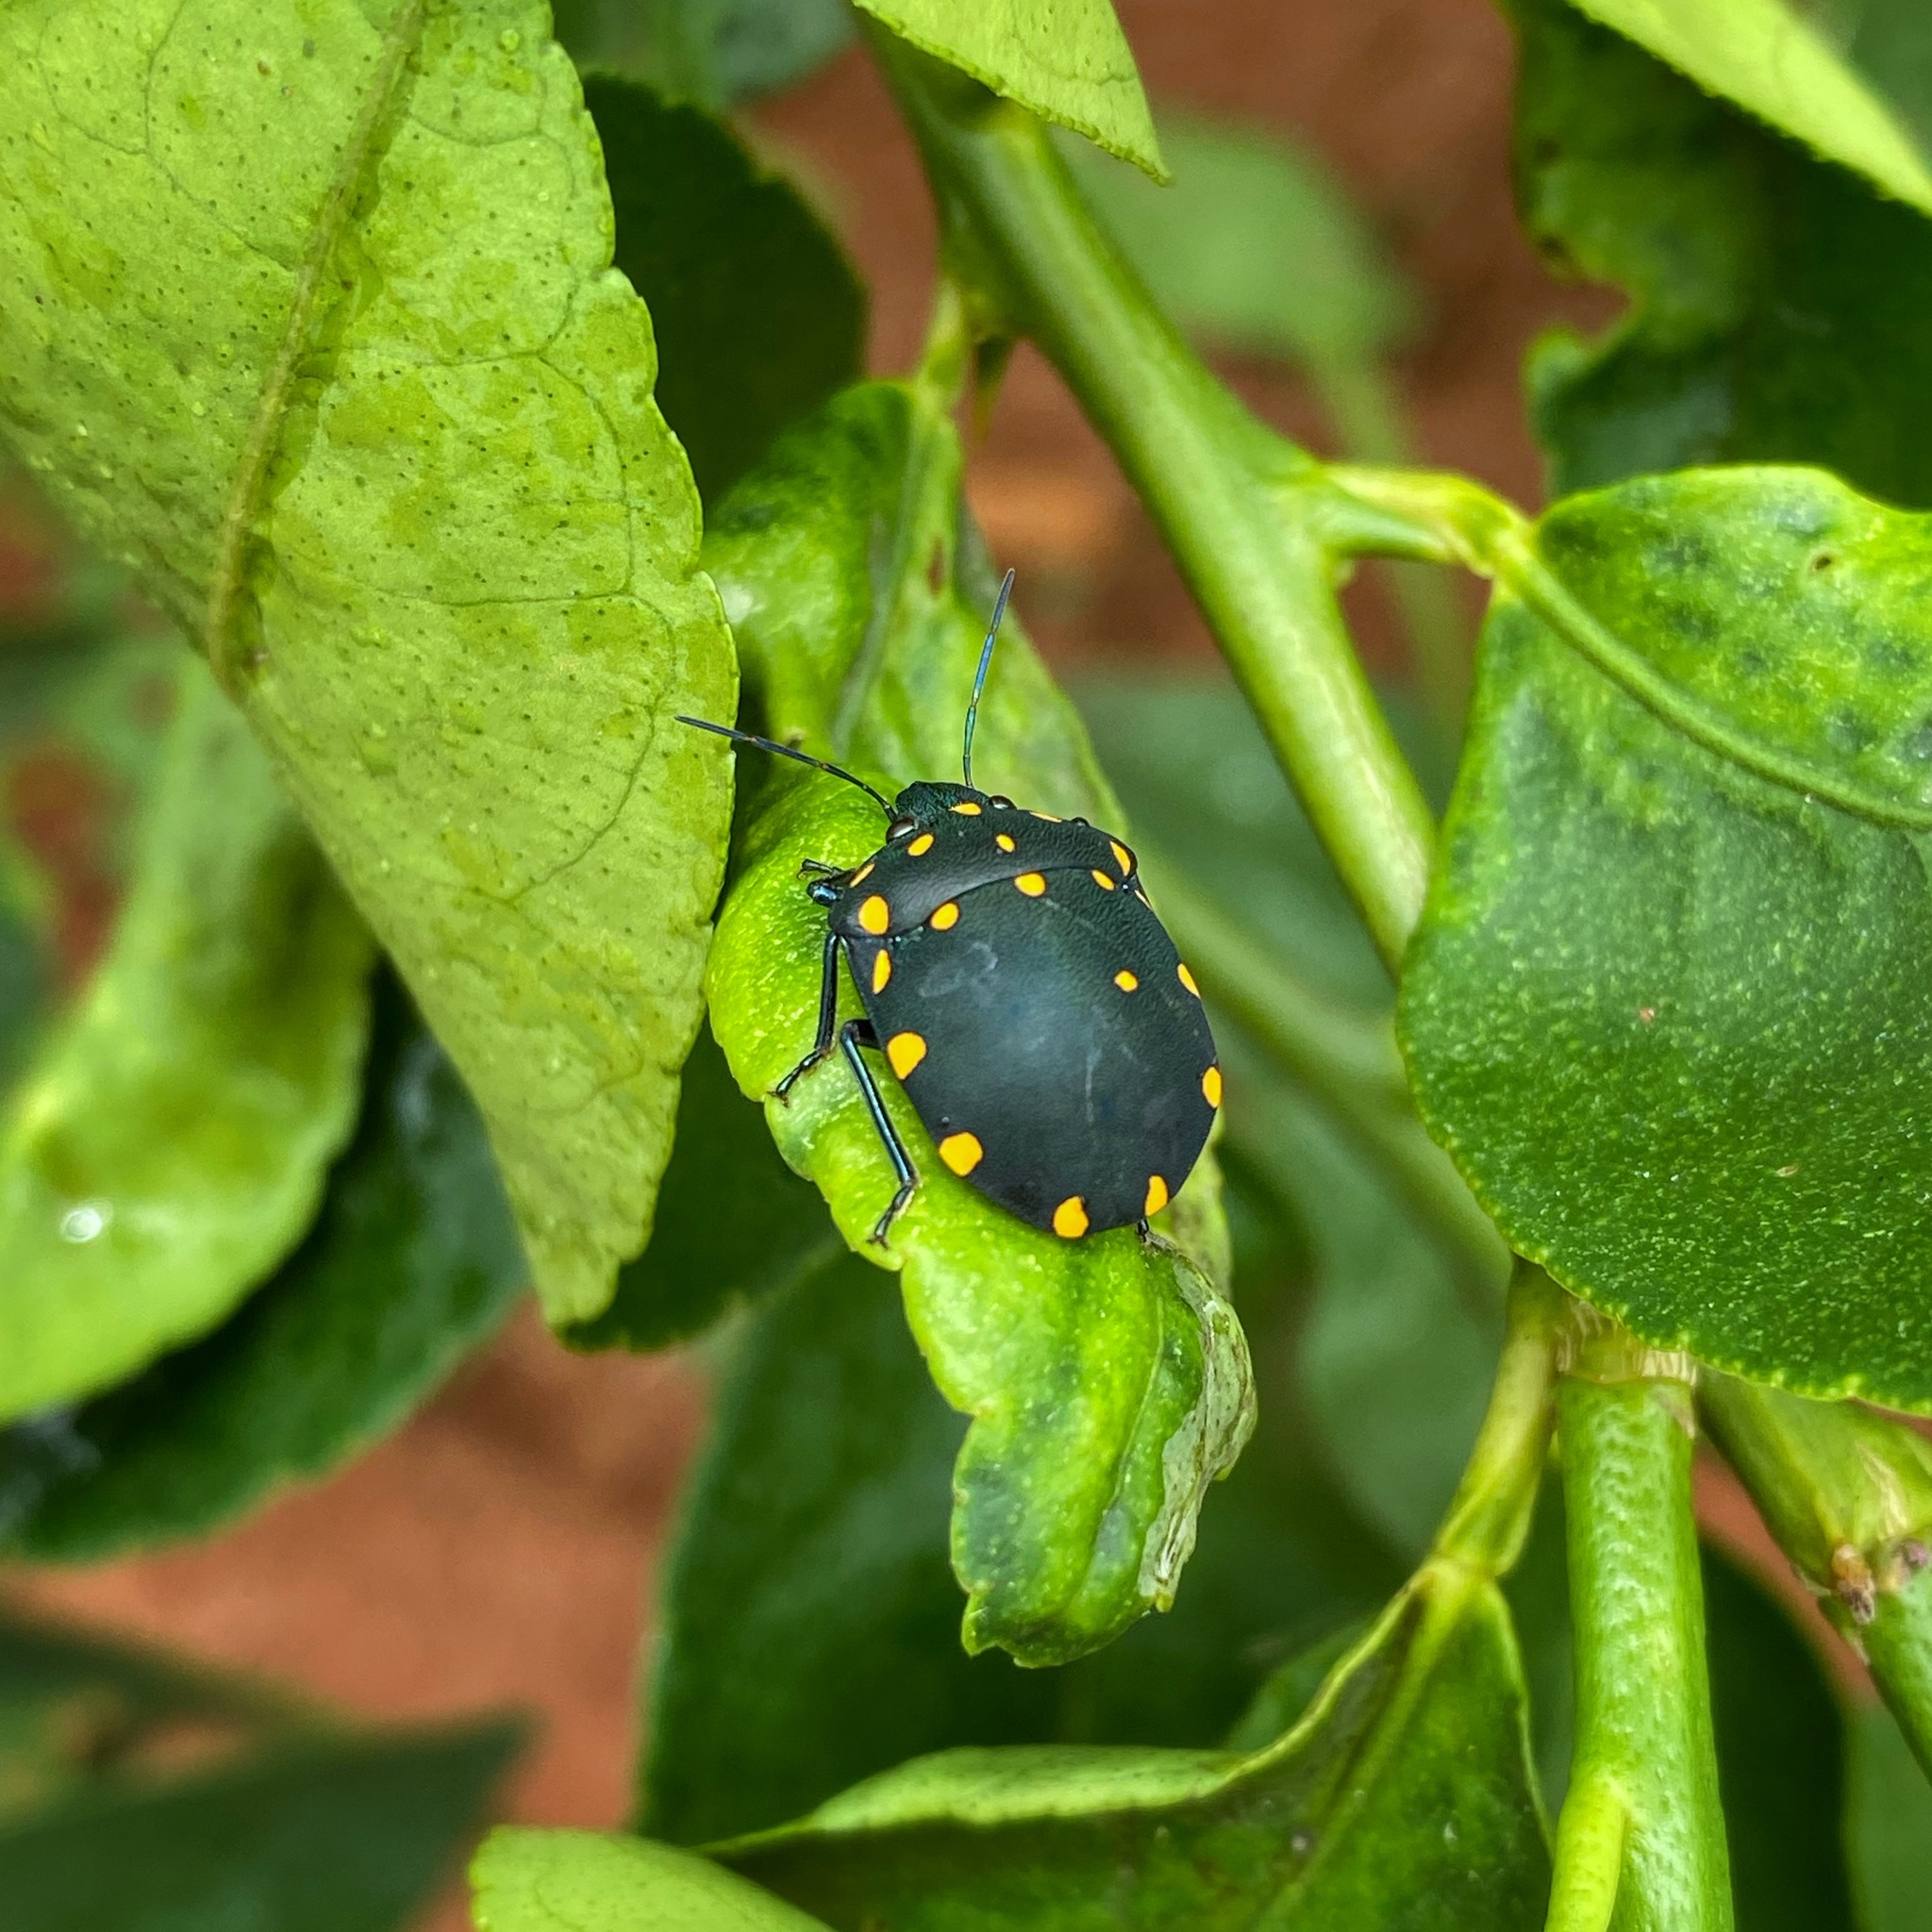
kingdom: Animalia
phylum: Arthropoda
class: Insecta
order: Hemiptera
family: Scutelleridae
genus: Pachycoris
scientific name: Pachycoris torridus
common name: Torrid jewel bug
